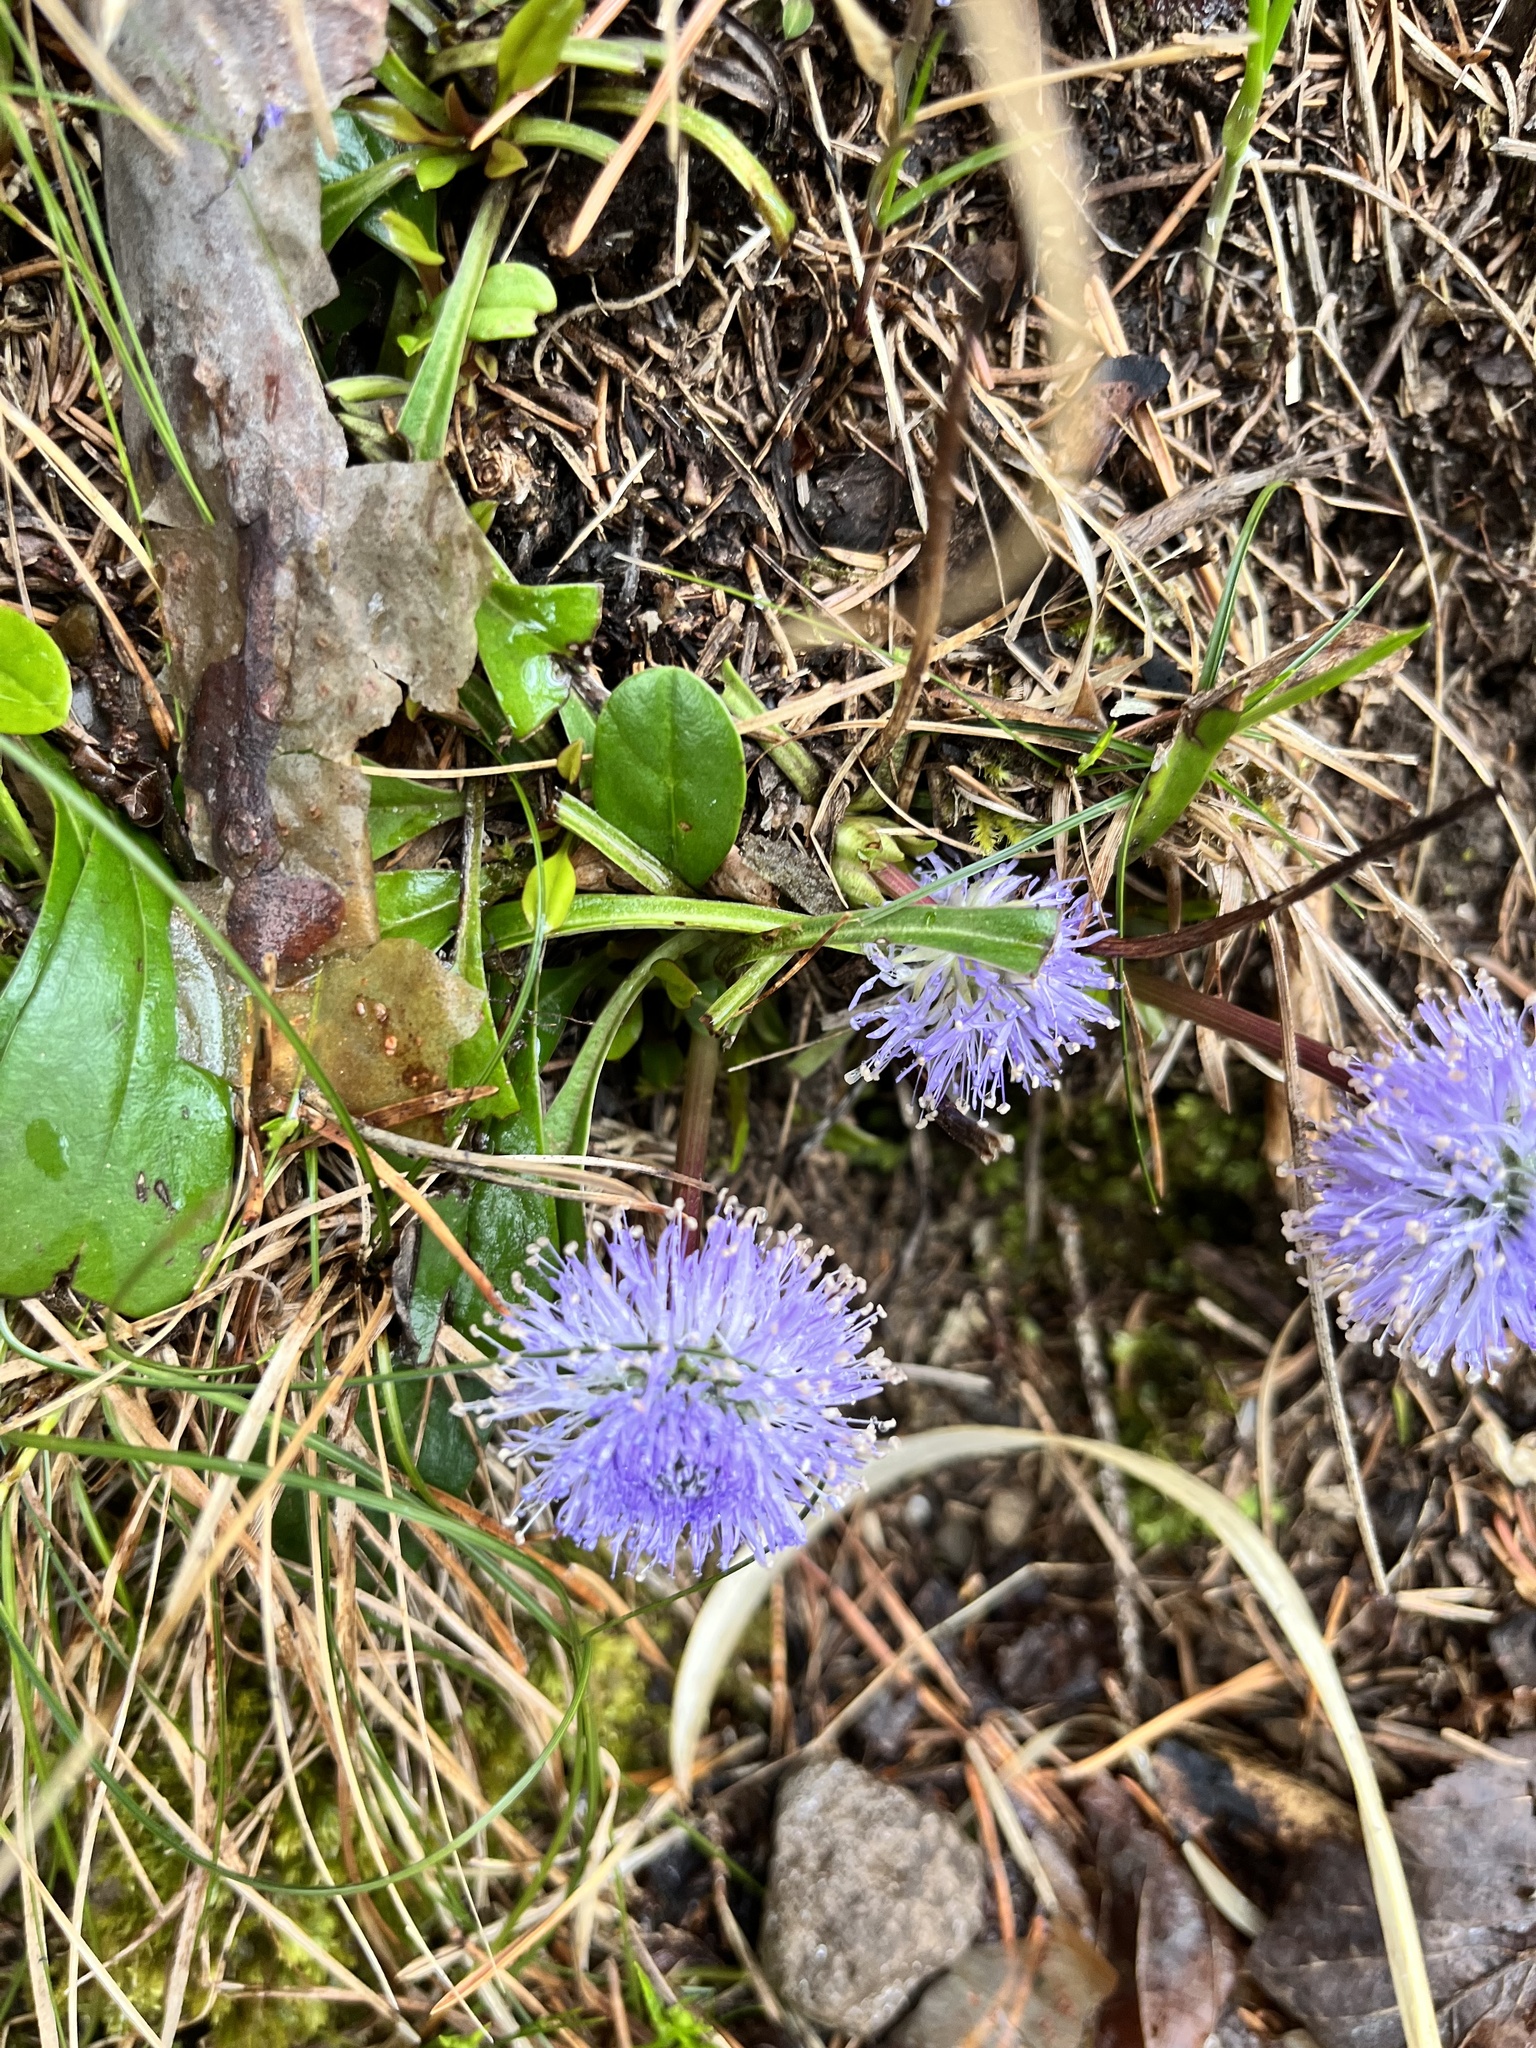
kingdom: Plantae
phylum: Tracheophyta
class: Magnoliopsida
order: Lamiales
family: Plantaginaceae
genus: Globularia
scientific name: Globularia nudicaulis
